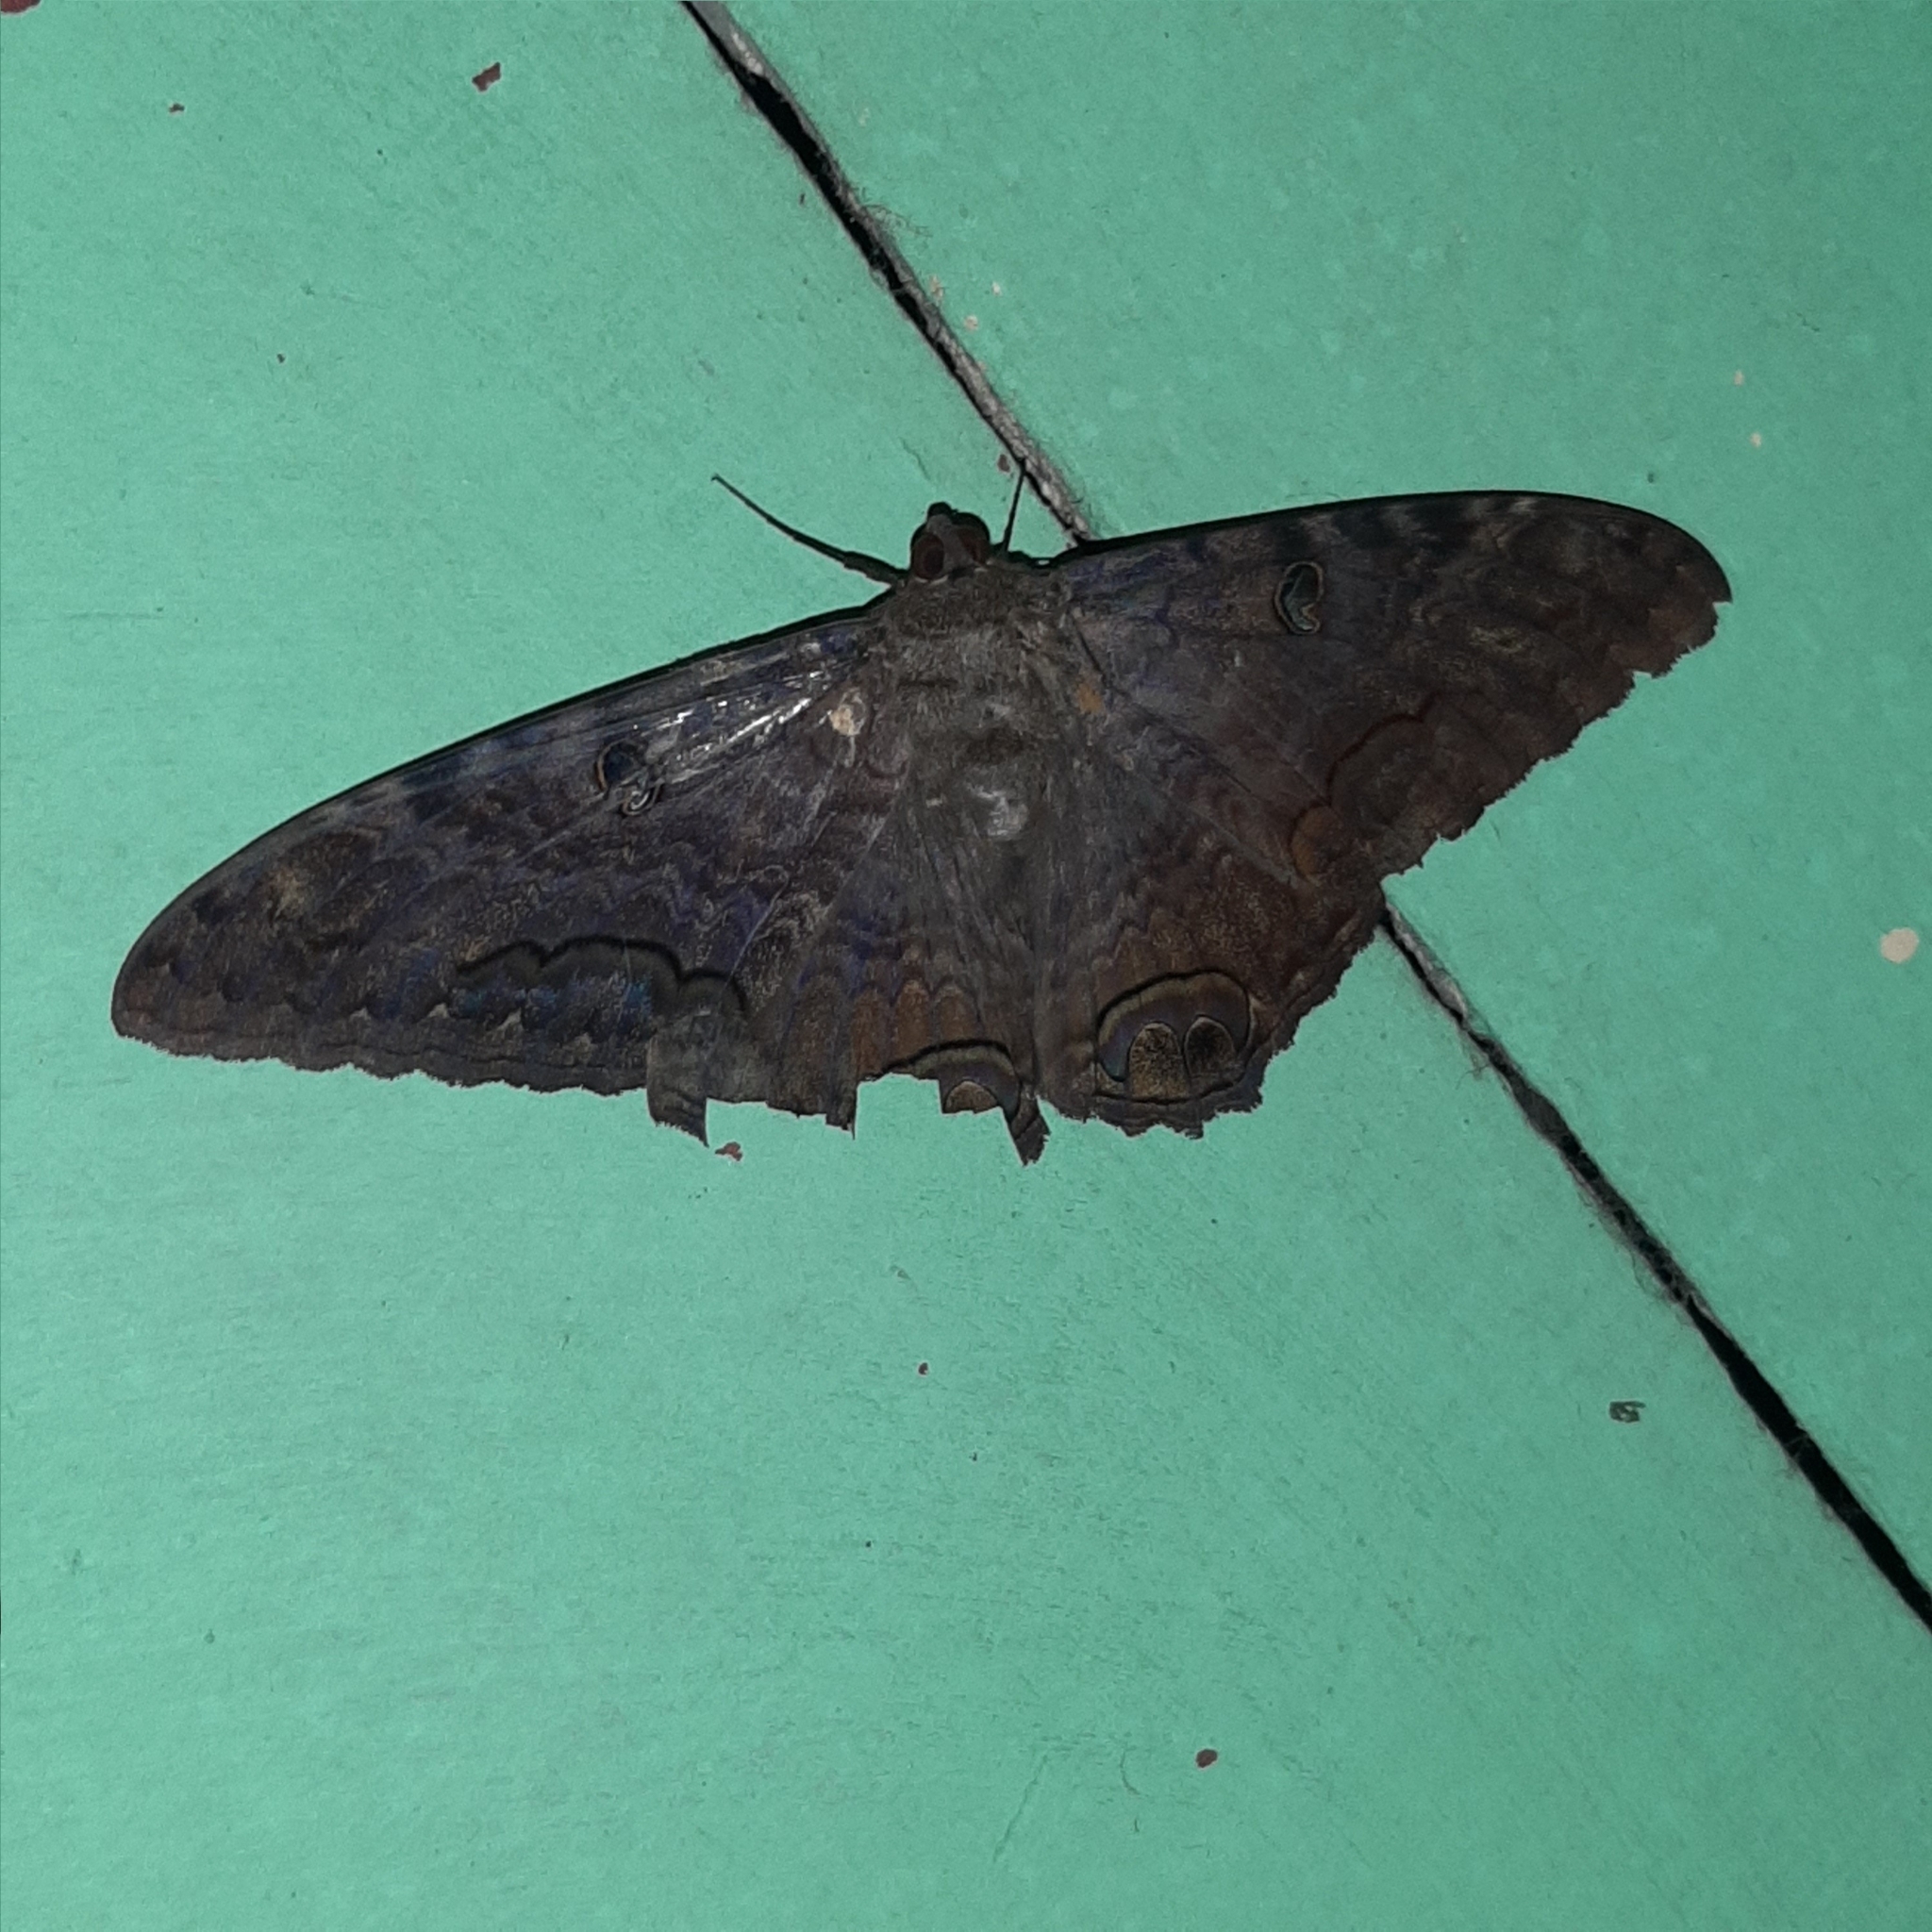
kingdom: Animalia
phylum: Arthropoda
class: Insecta
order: Lepidoptera
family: Erebidae
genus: Ascalapha
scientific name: Ascalapha odorata
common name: Black witch
